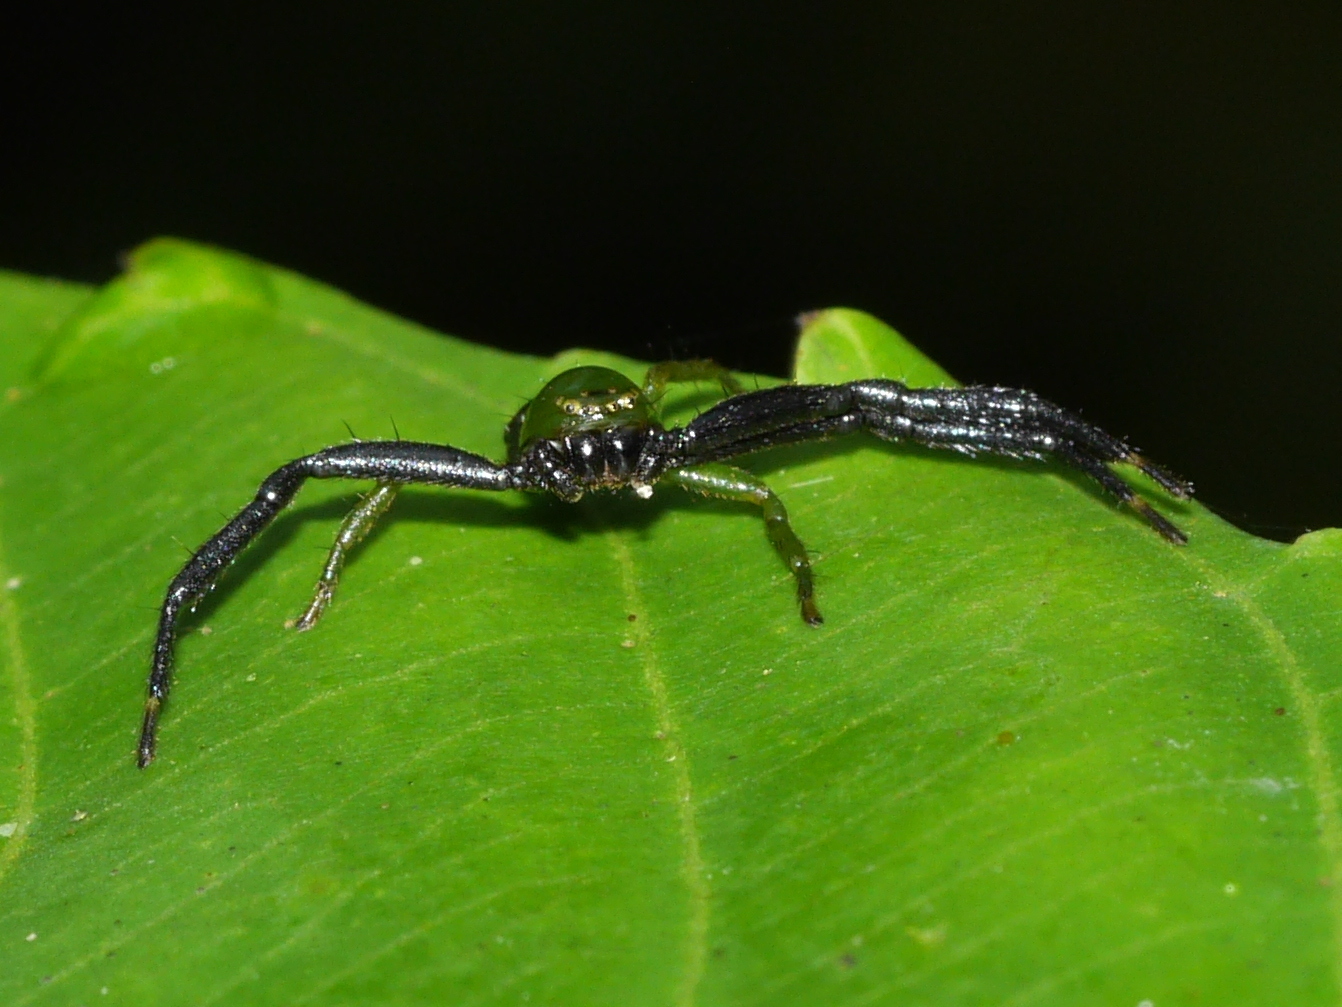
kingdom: Animalia
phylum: Arthropoda
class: Arachnida
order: Araneae
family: Thomisidae
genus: Synema
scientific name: Synema revolutum
